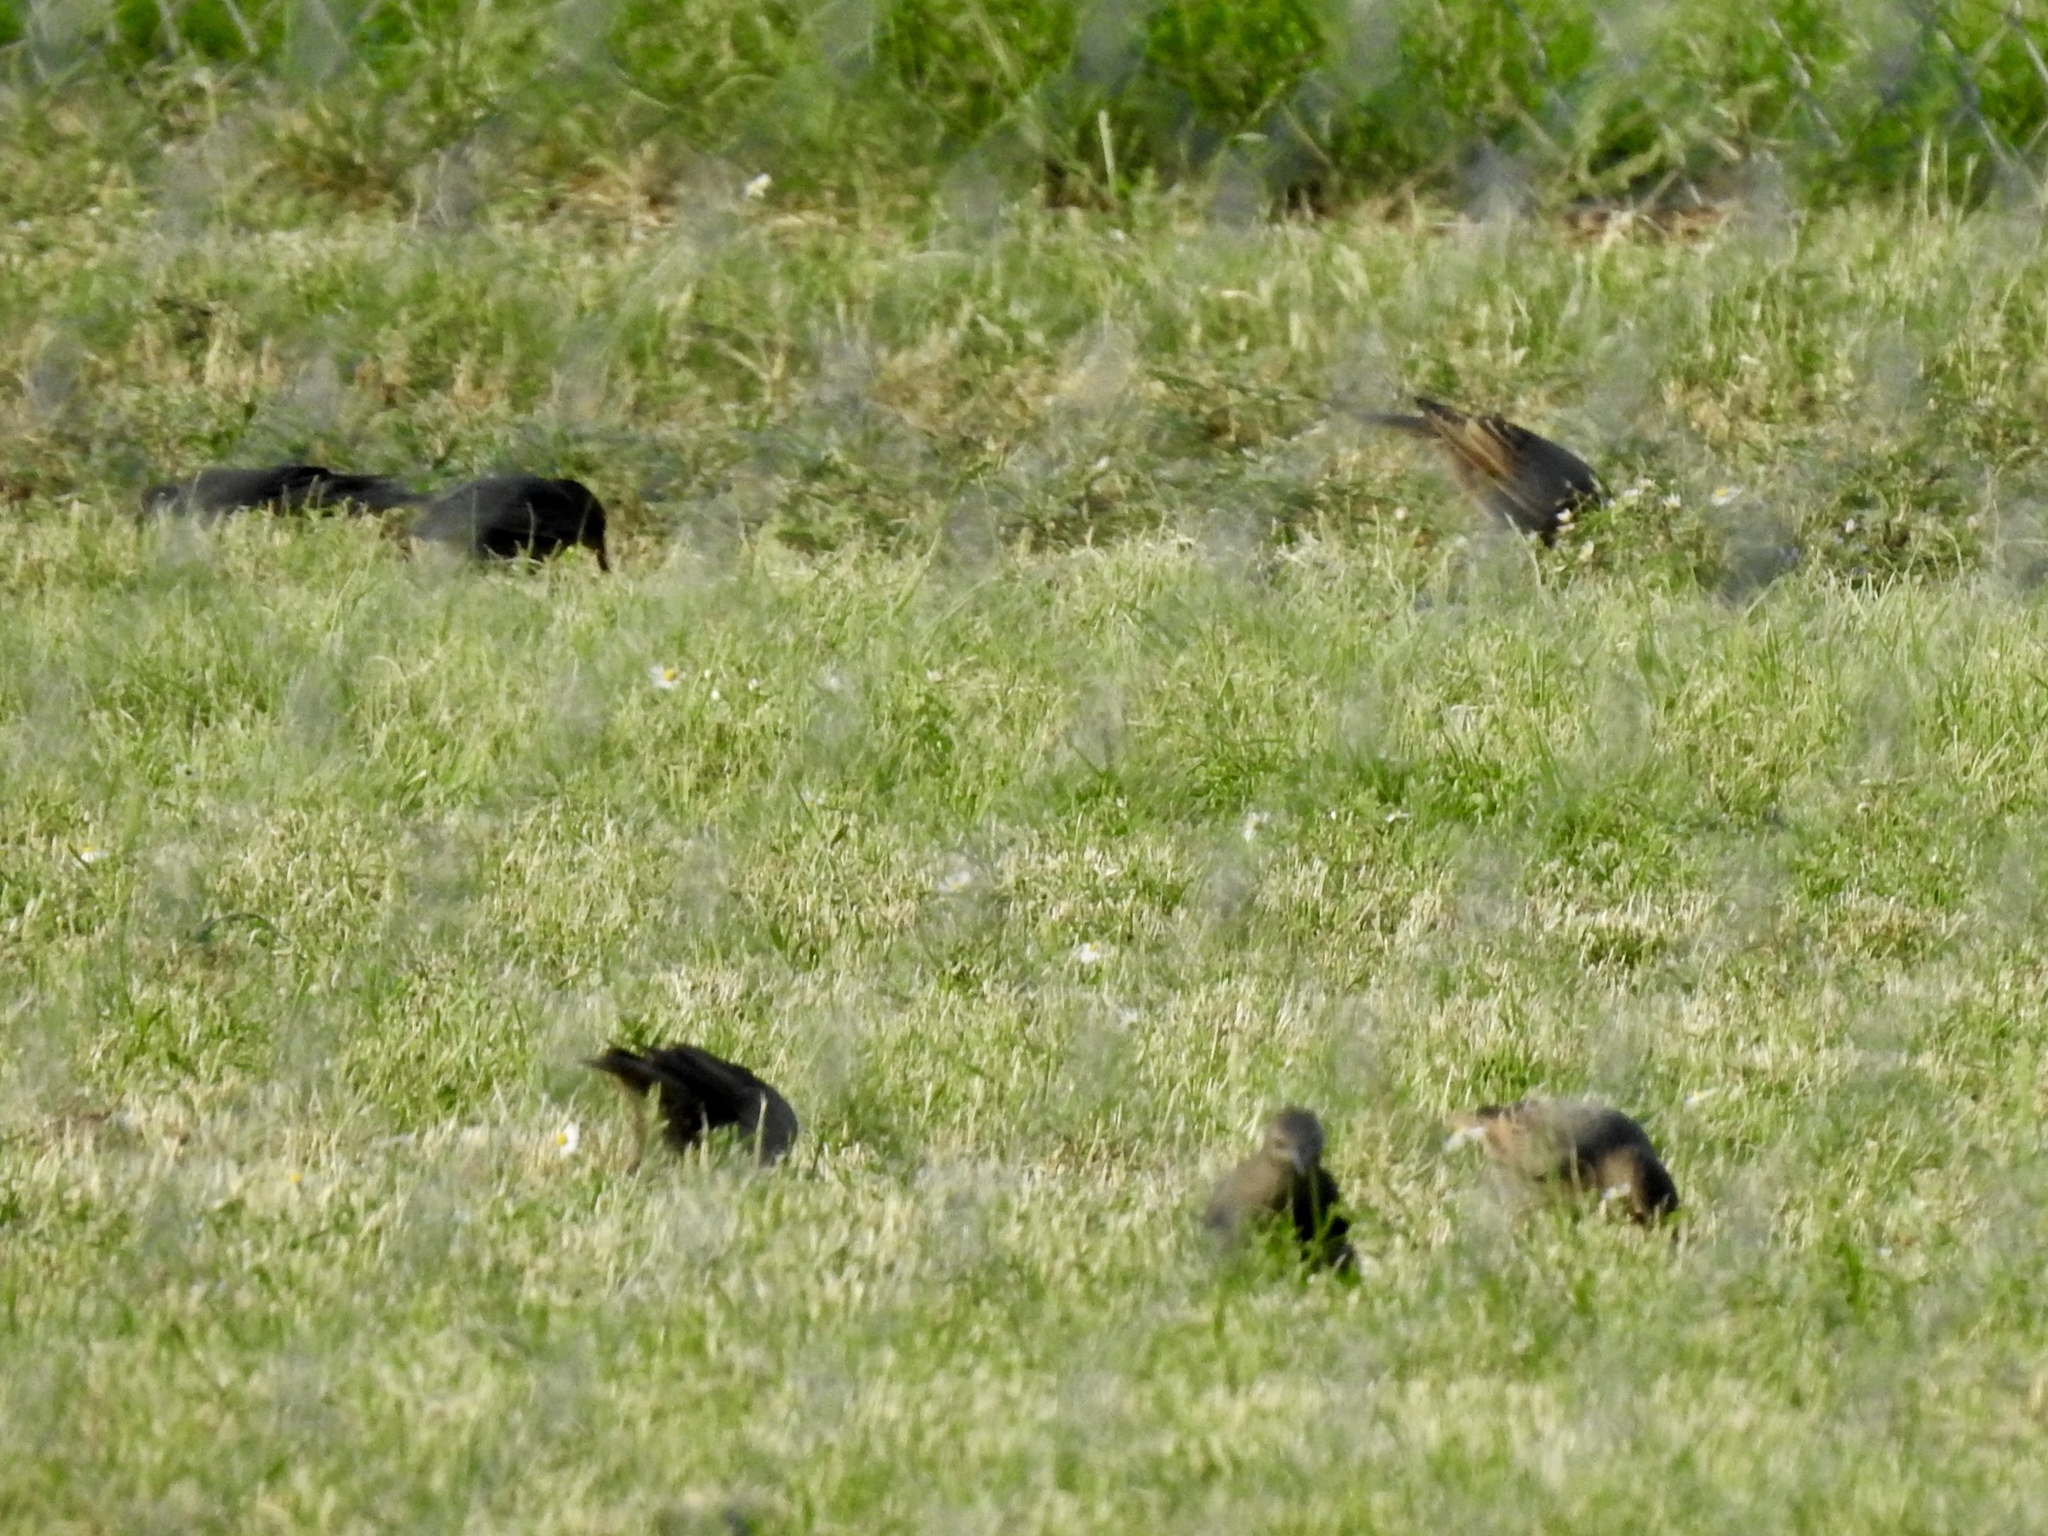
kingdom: Animalia
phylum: Chordata
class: Aves
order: Passeriformes
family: Sturnidae
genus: Sturnus
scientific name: Sturnus vulgaris
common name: Common starling
